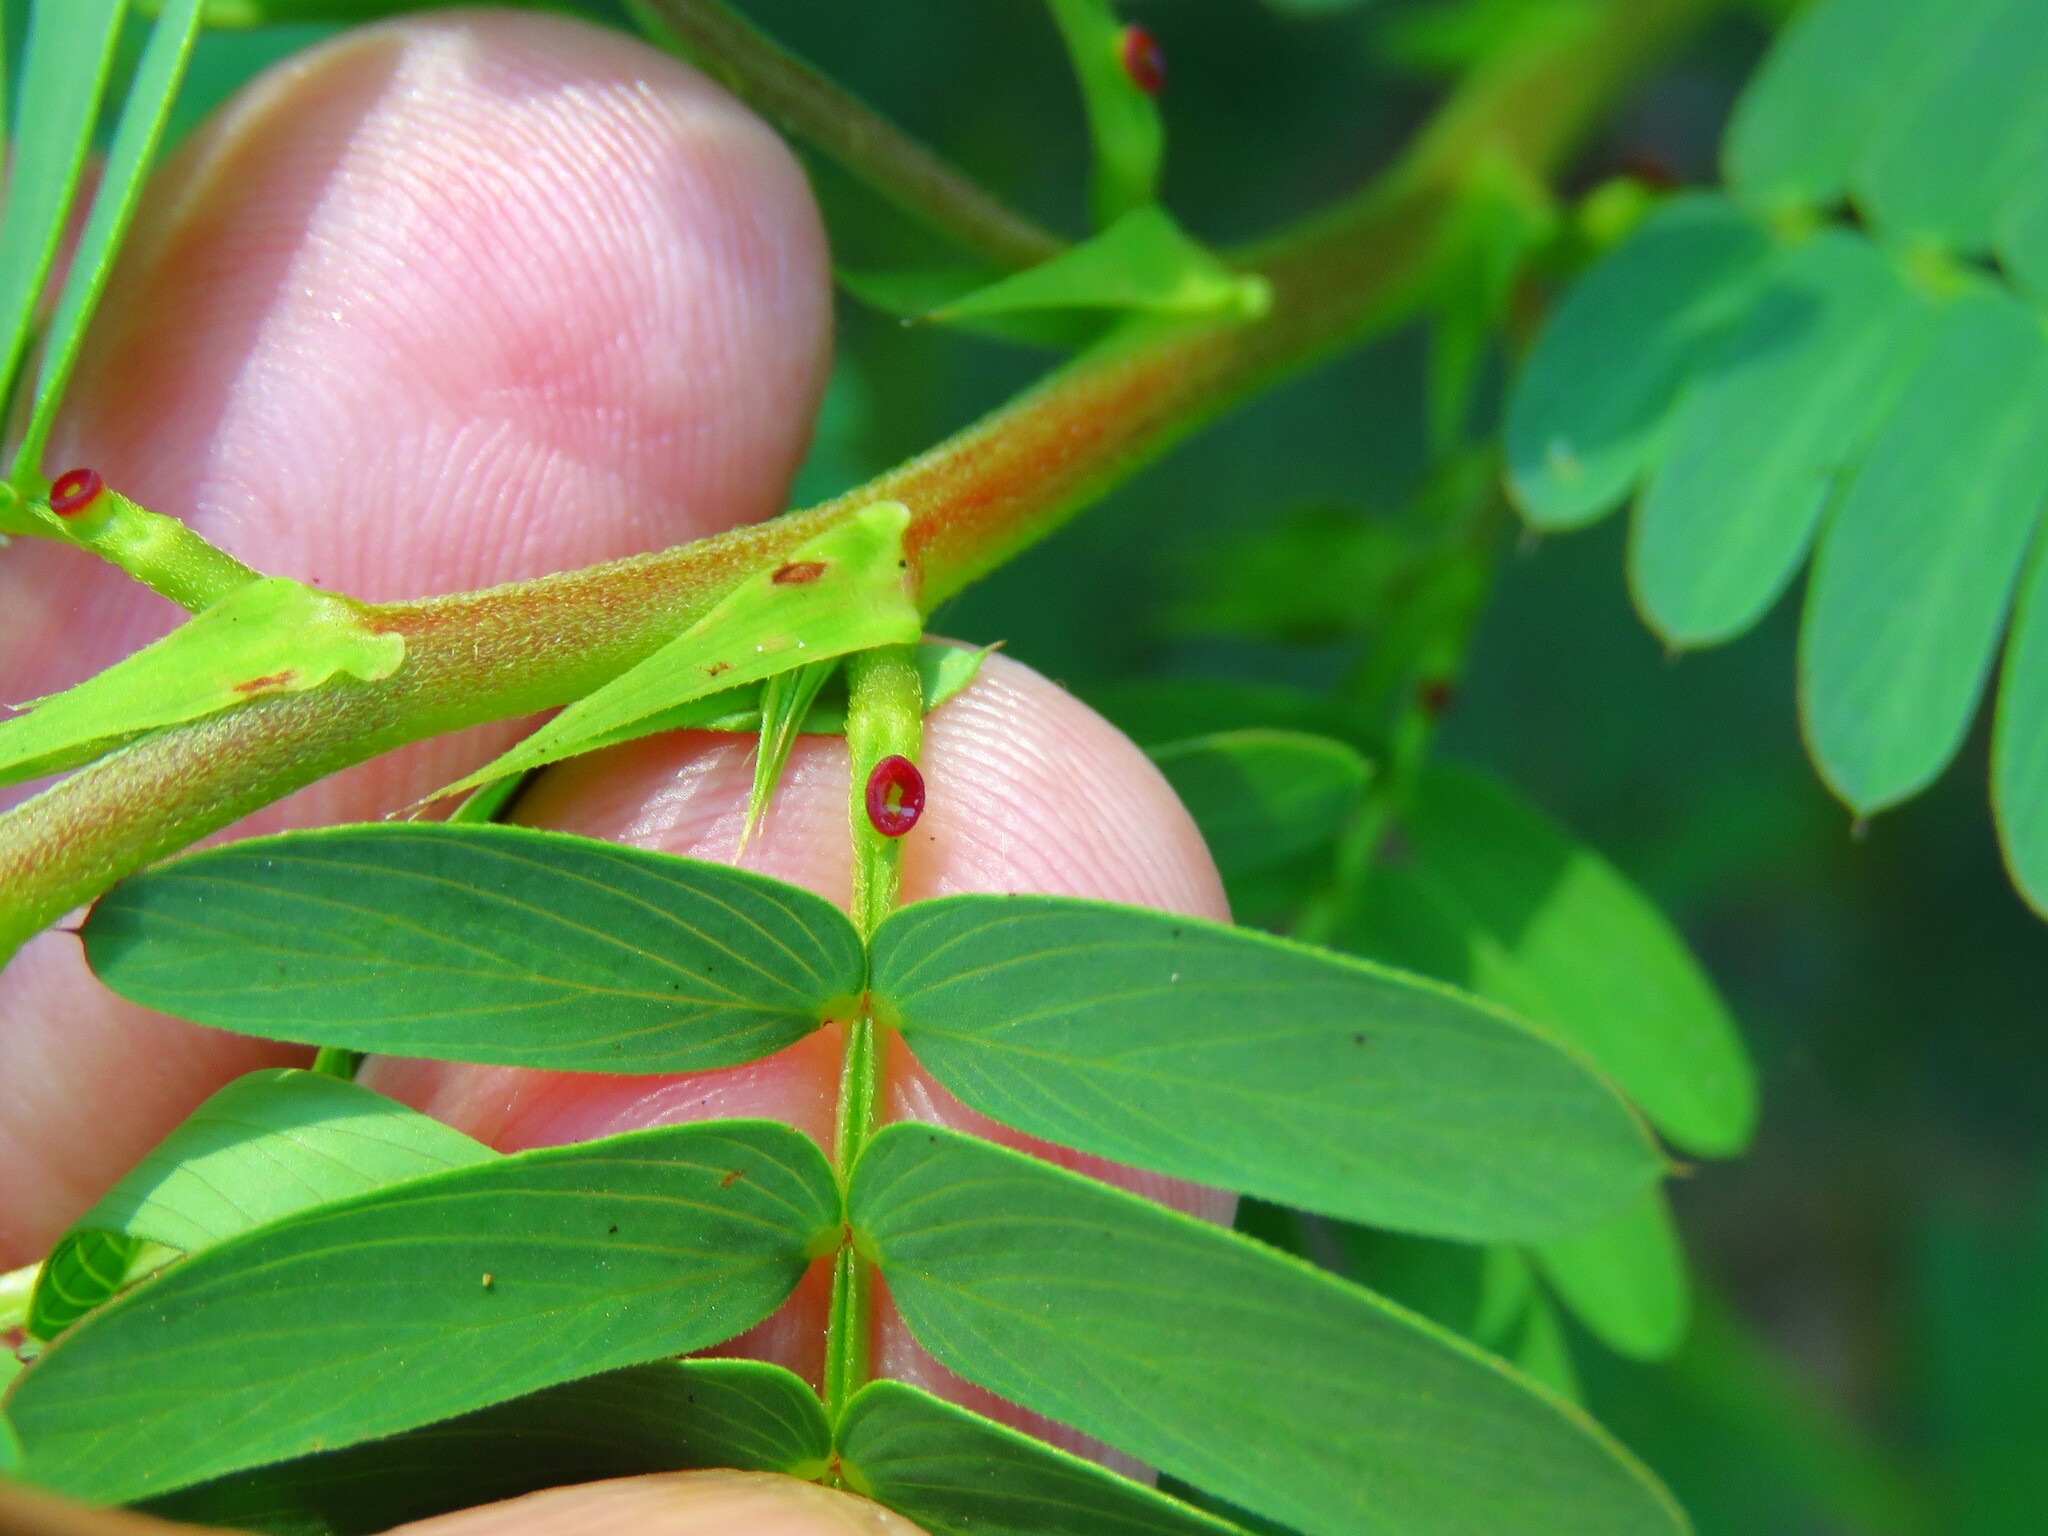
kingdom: Plantae
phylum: Tracheophyta
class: Magnoliopsida
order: Fabales
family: Fabaceae
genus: Chamaecrista
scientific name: Chamaecrista fasciculata
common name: Golden cassia
